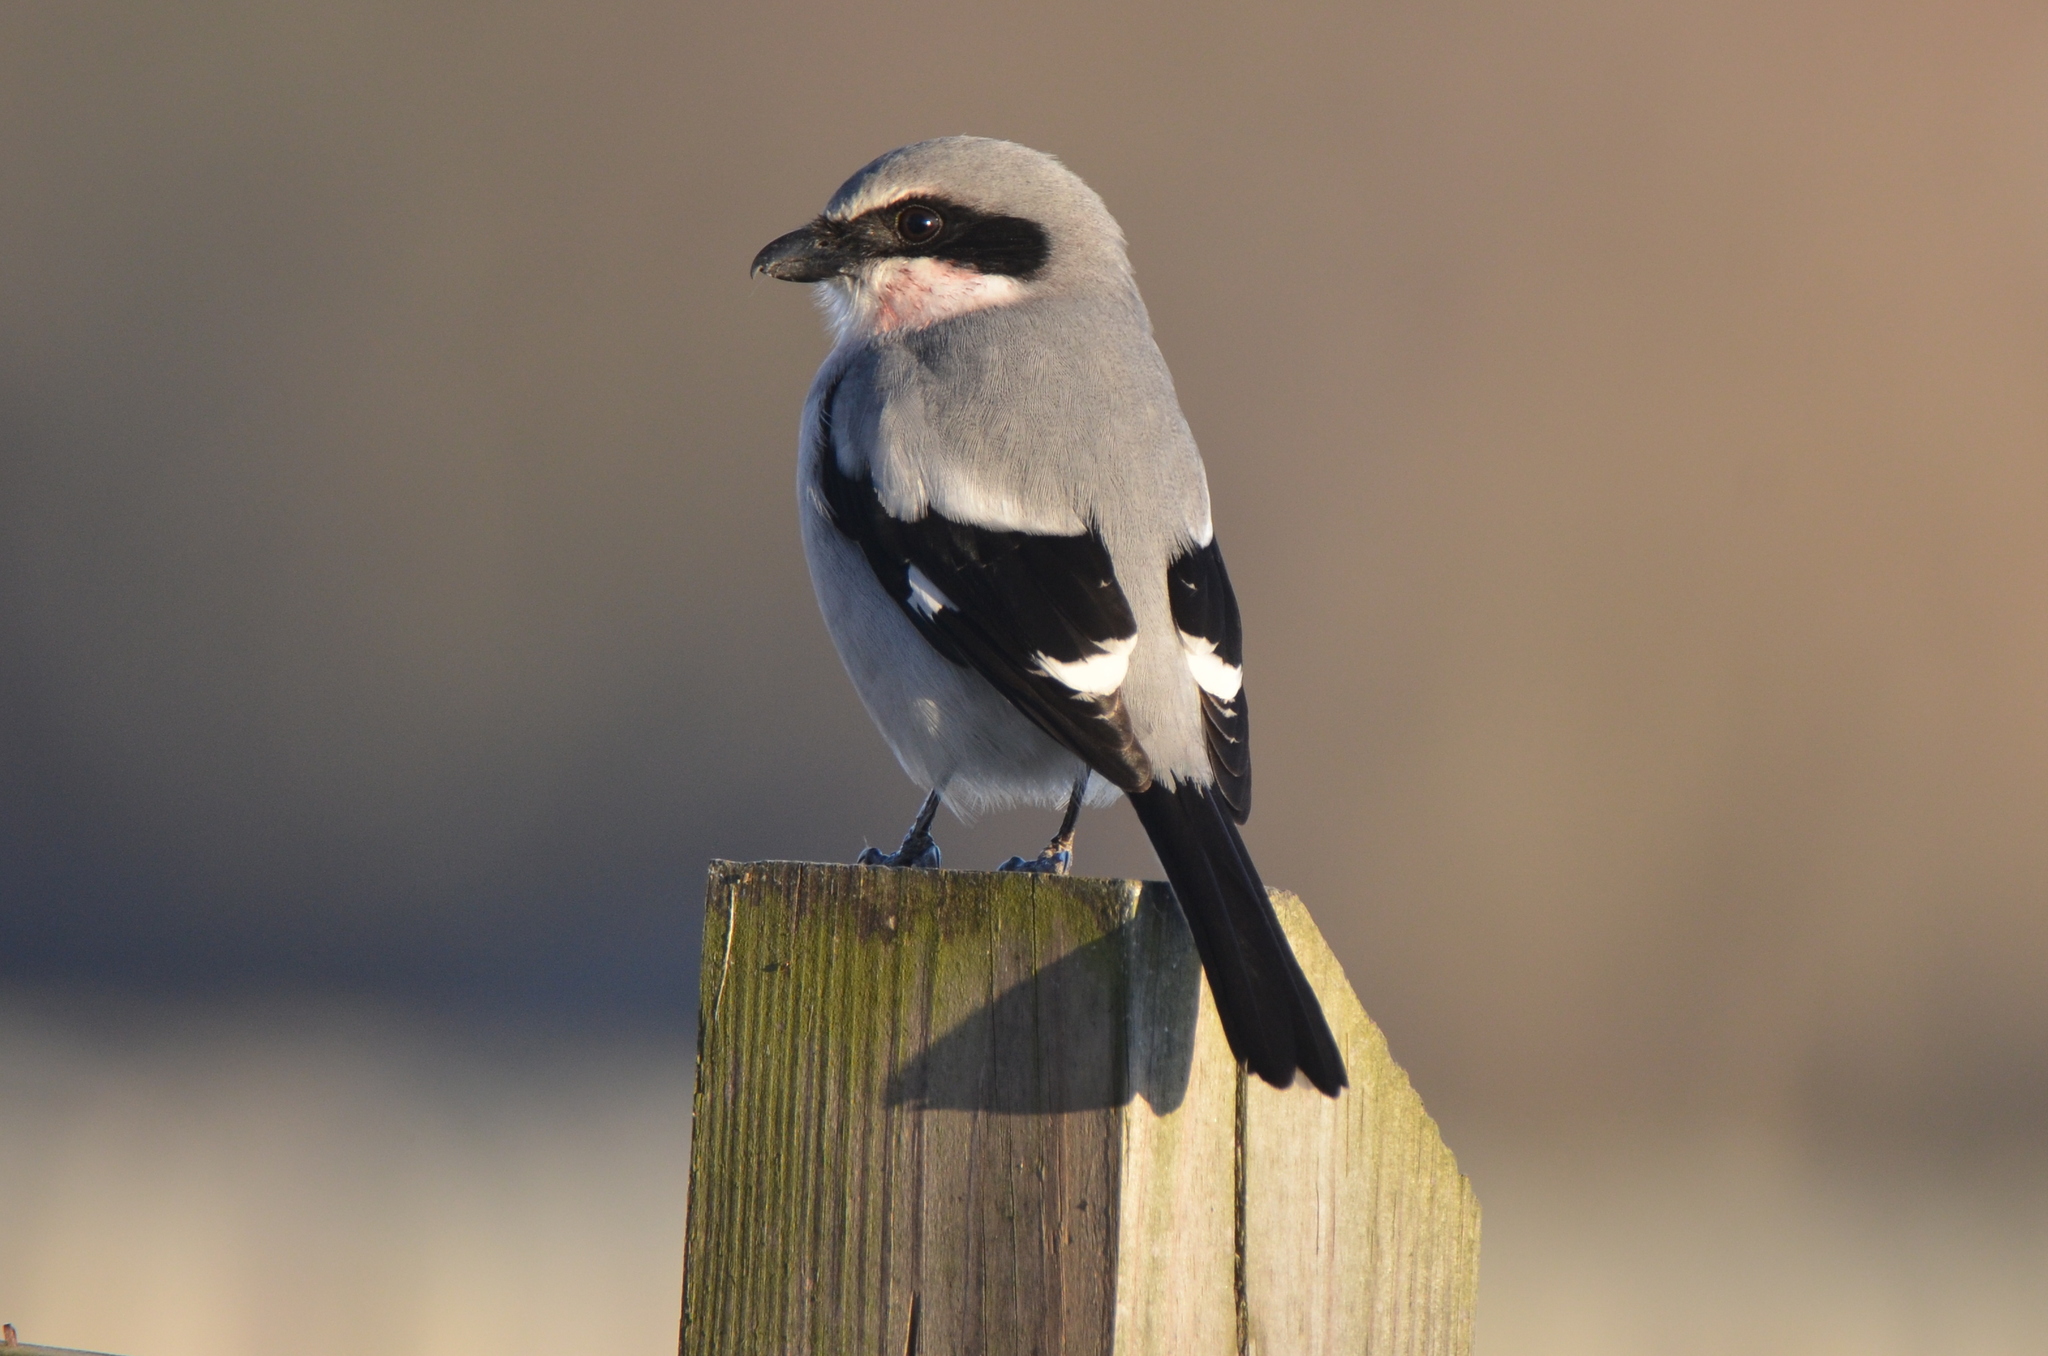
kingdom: Animalia
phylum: Chordata
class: Aves
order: Passeriformes
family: Laniidae
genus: Lanius
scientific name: Lanius ludovicianus
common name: Loggerhead shrike
